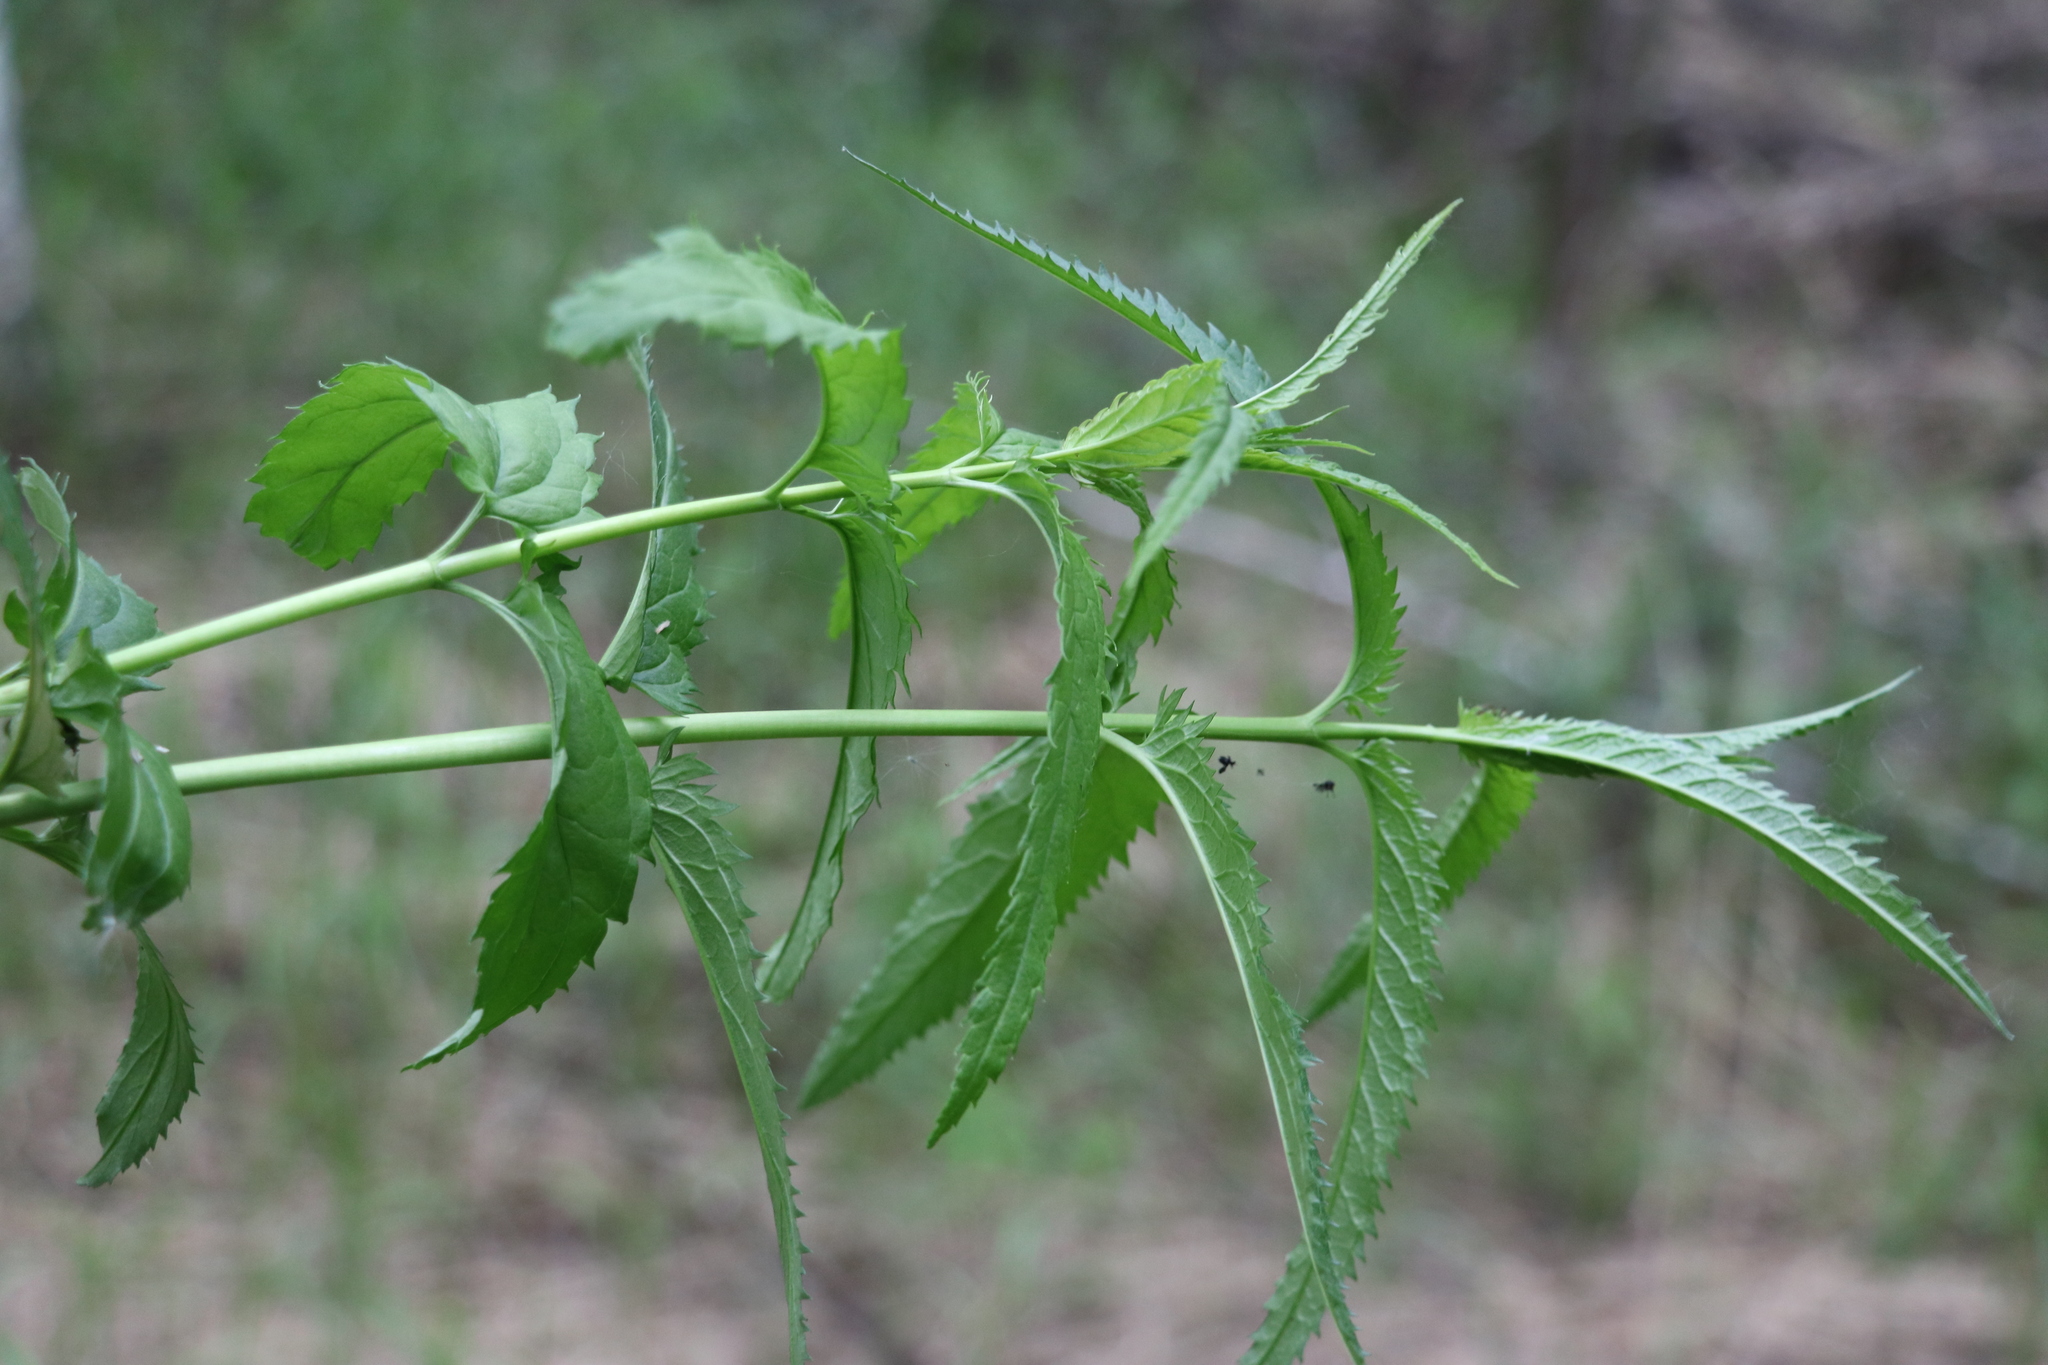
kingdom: Plantae
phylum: Tracheophyta
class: Magnoliopsida
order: Lamiales
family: Plantaginaceae
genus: Veronica
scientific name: Veronica longifolia
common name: Garden speedwell
